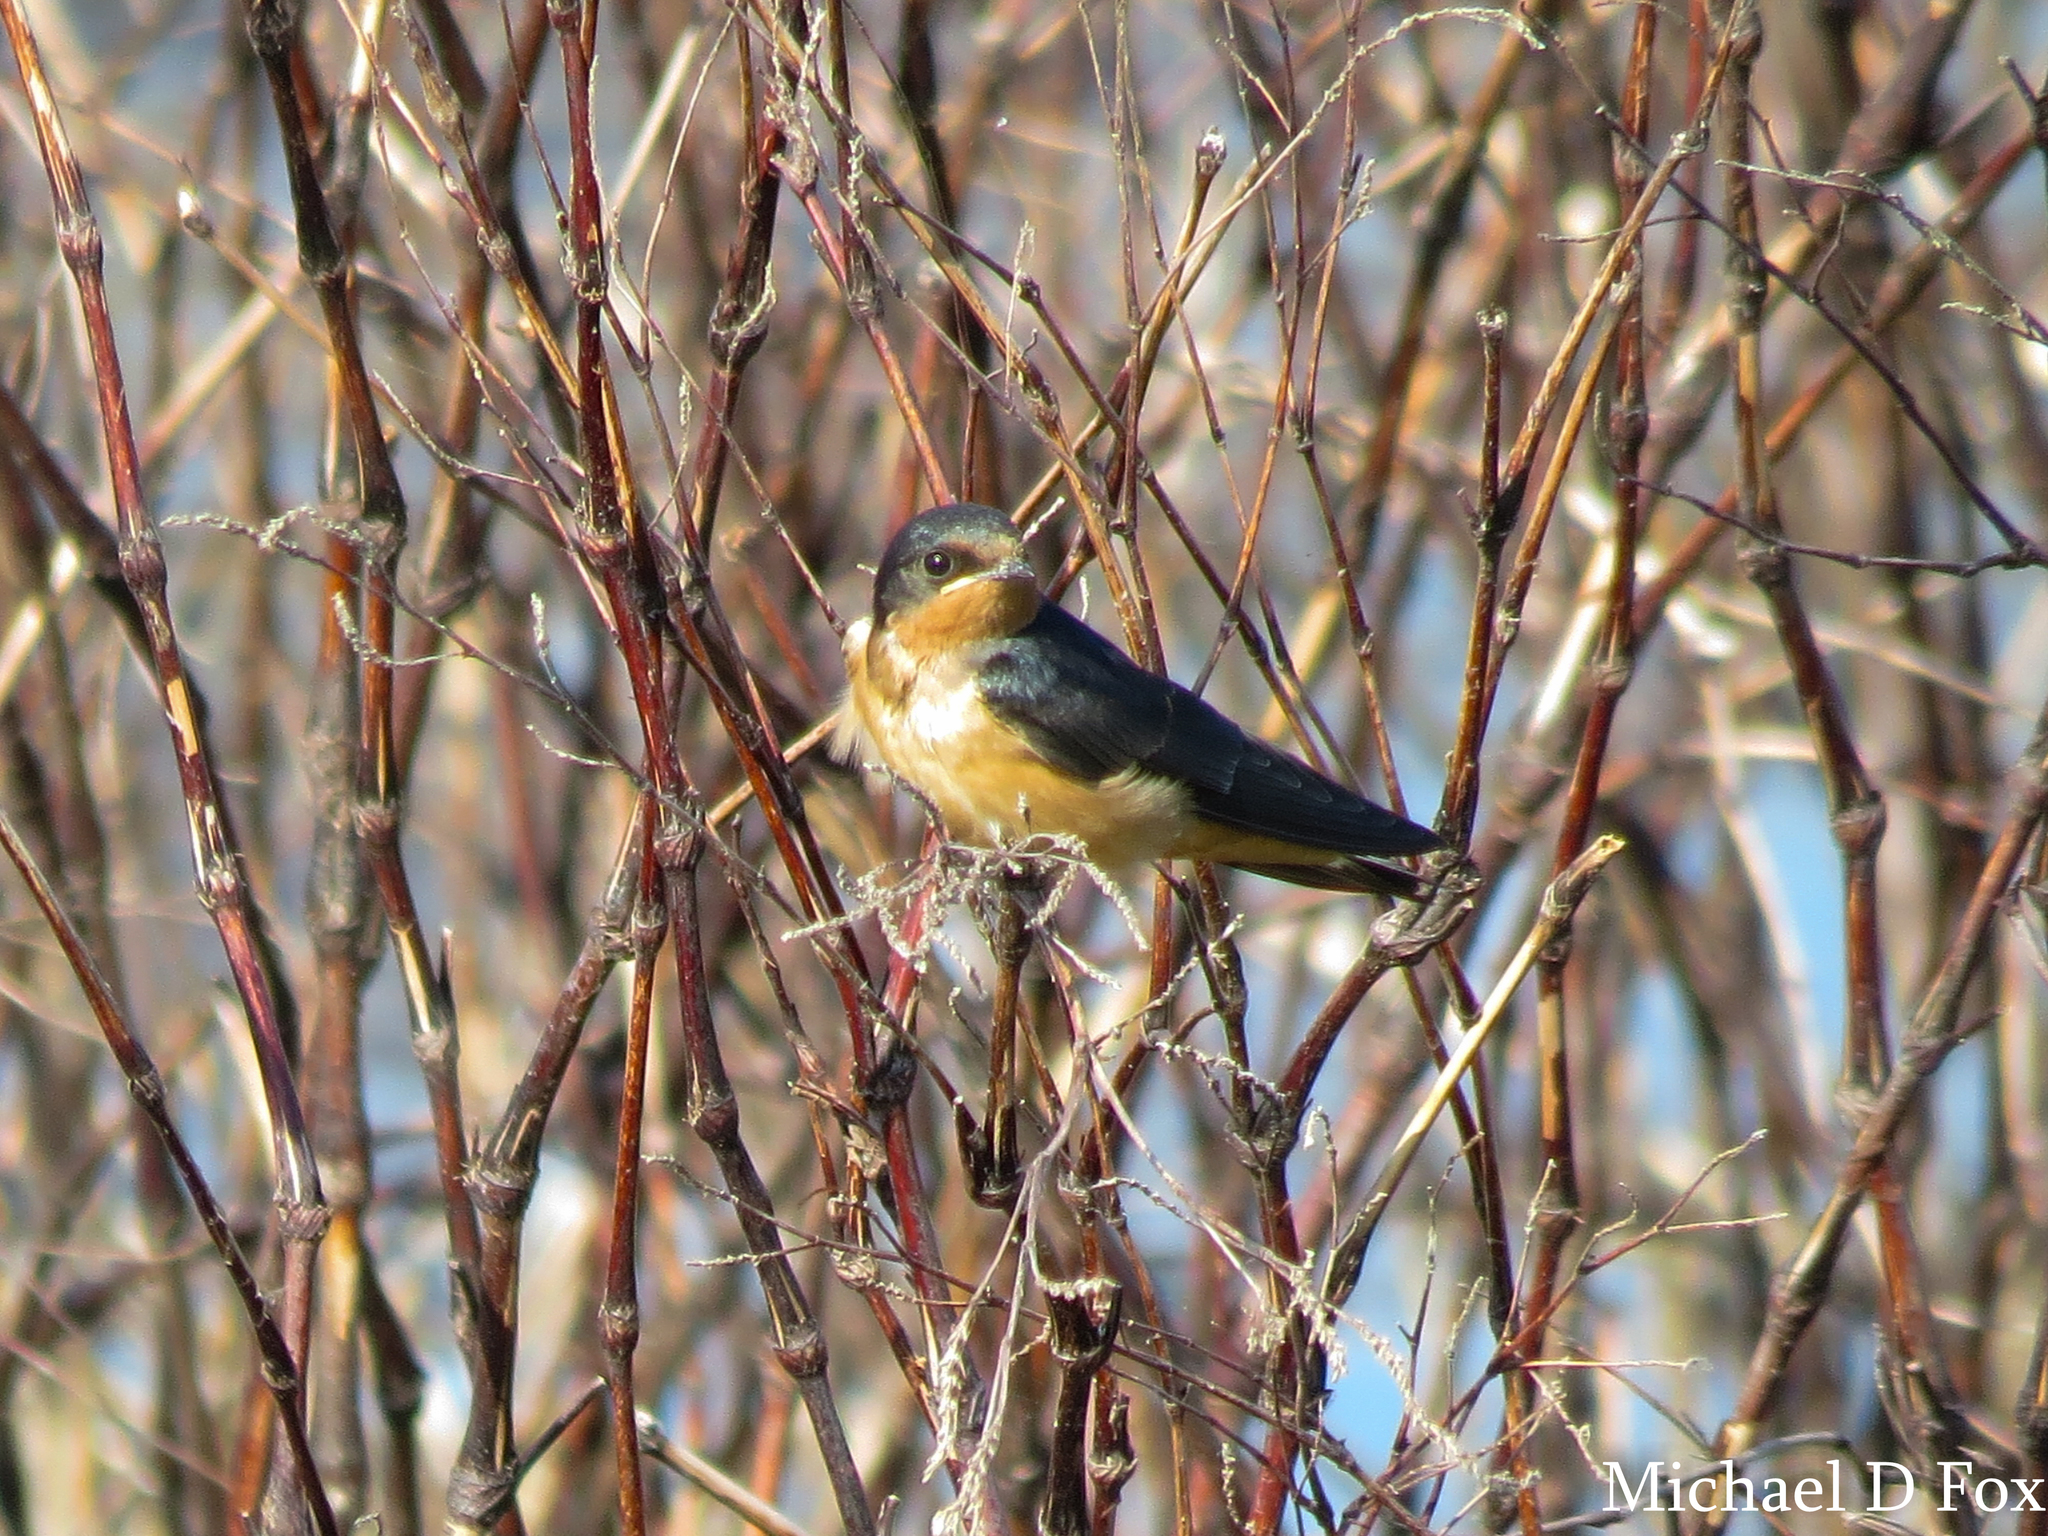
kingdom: Animalia
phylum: Chordata
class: Aves
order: Passeriformes
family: Hirundinidae
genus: Hirundo
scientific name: Hirundo rustica
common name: Barn swallow
